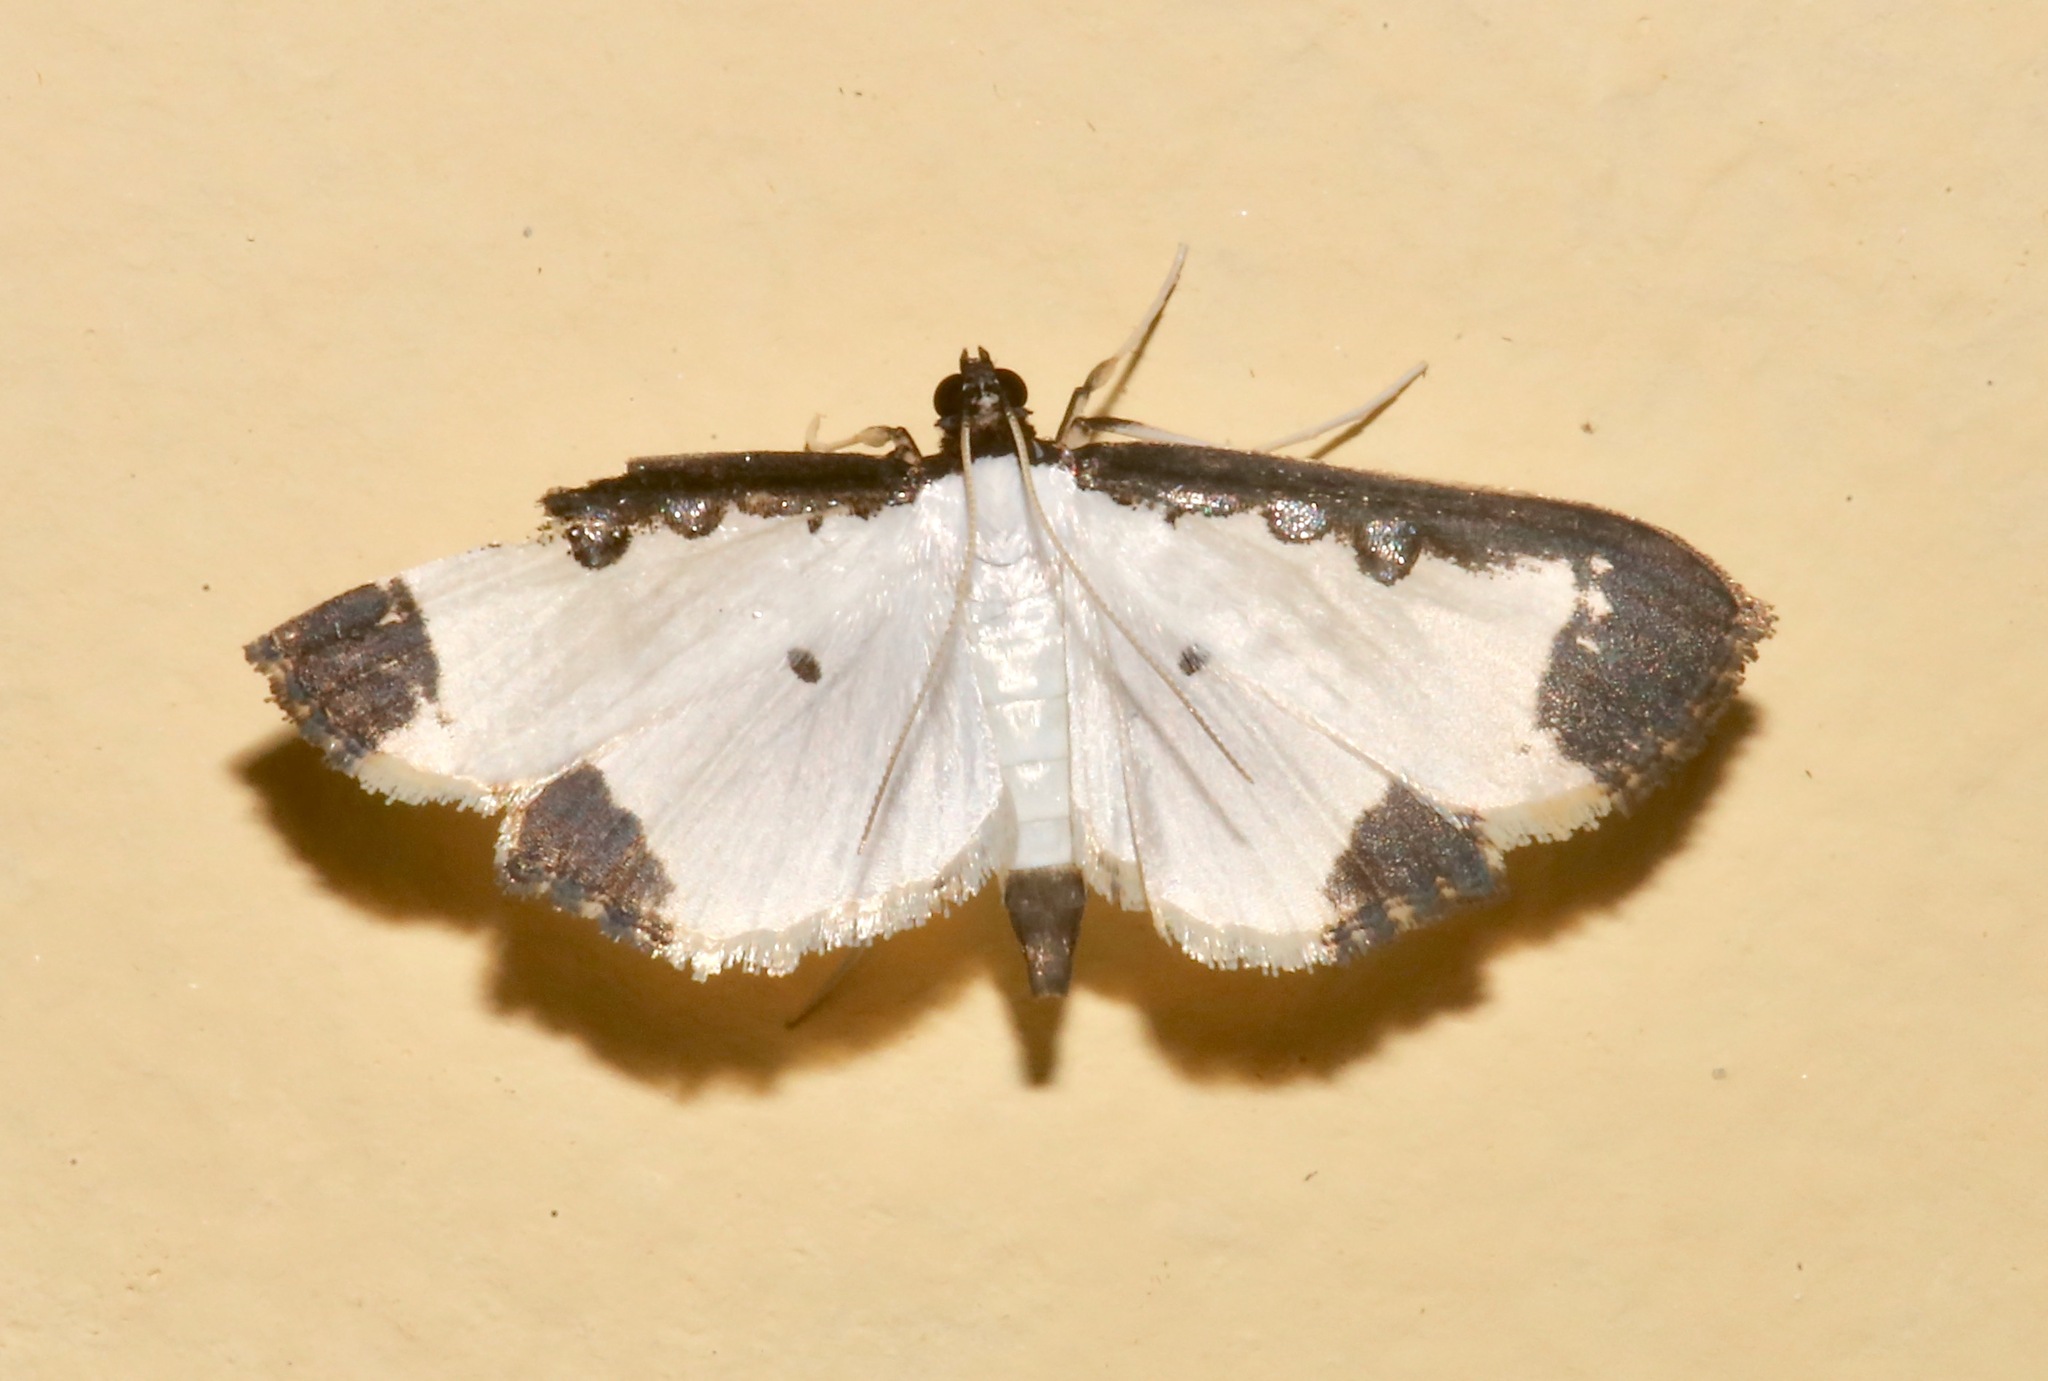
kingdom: Animalia
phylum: Arthropoda
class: Insecta
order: Lepidoptera
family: Crambidae
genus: Caprinia
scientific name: Caprinia periusalis
